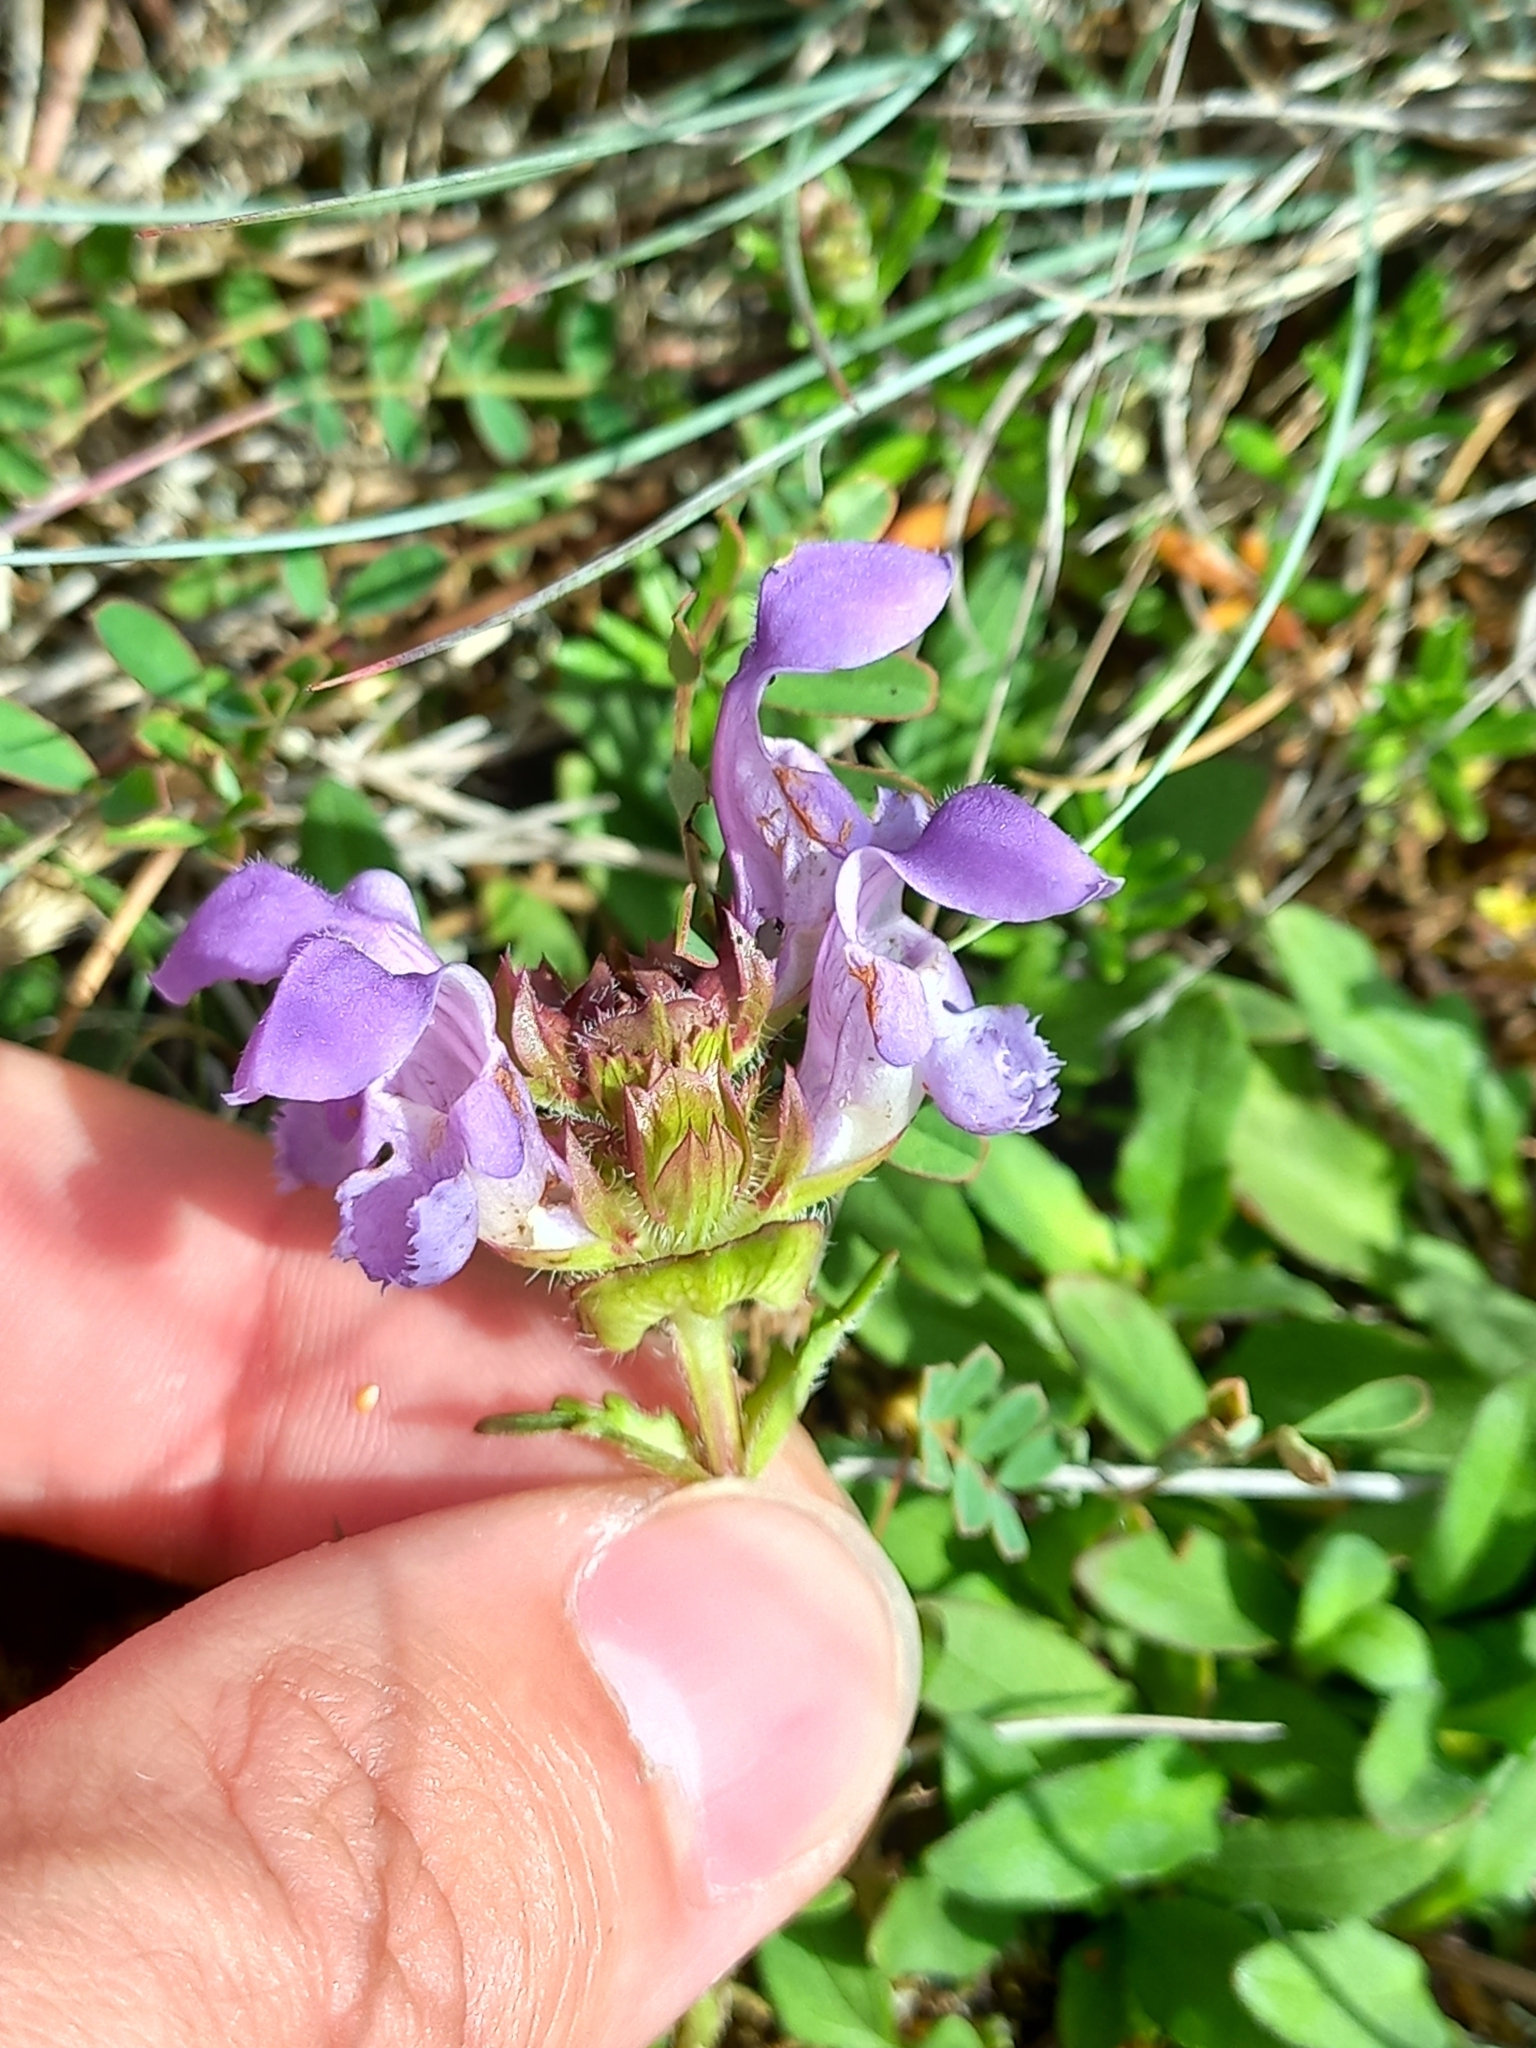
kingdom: Plantae
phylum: Tracheophyta
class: Magnoliopsida
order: Lamiales
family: Lamiaceae
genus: Prunella
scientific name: Prunella grandiflora
